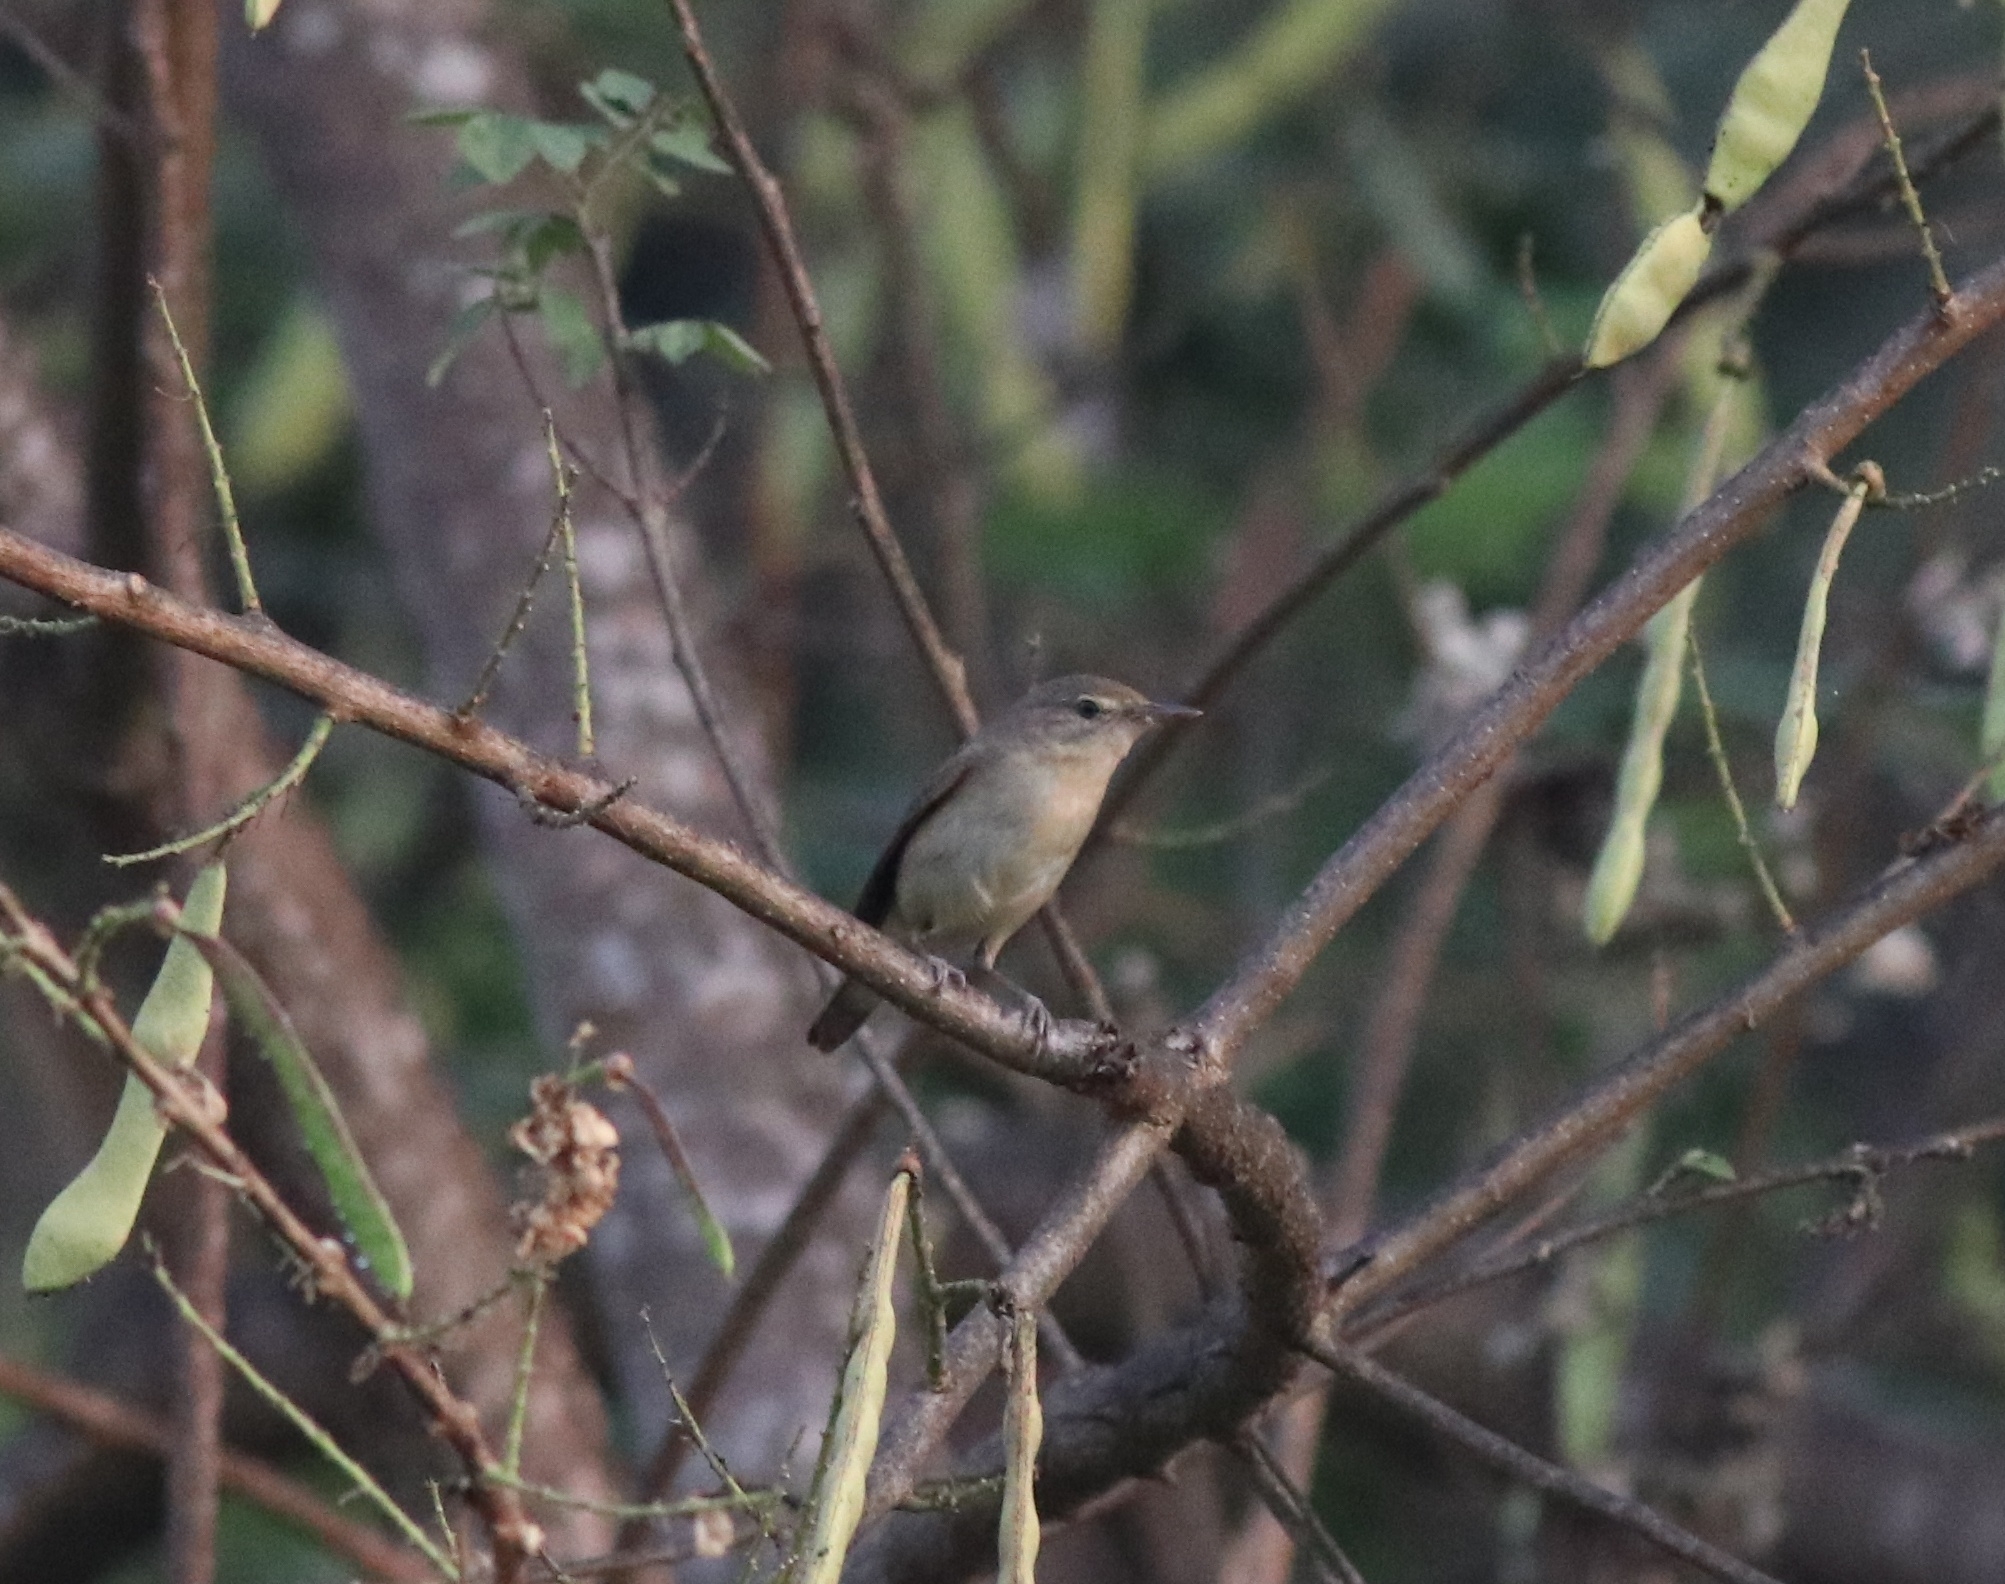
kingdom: Animalia
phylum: Chordata
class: Aves
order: Passeriformes
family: Acrocephalidae
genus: Acrocephalus
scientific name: Acrocephalus dumetorum
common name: Blyth's reed warbler
